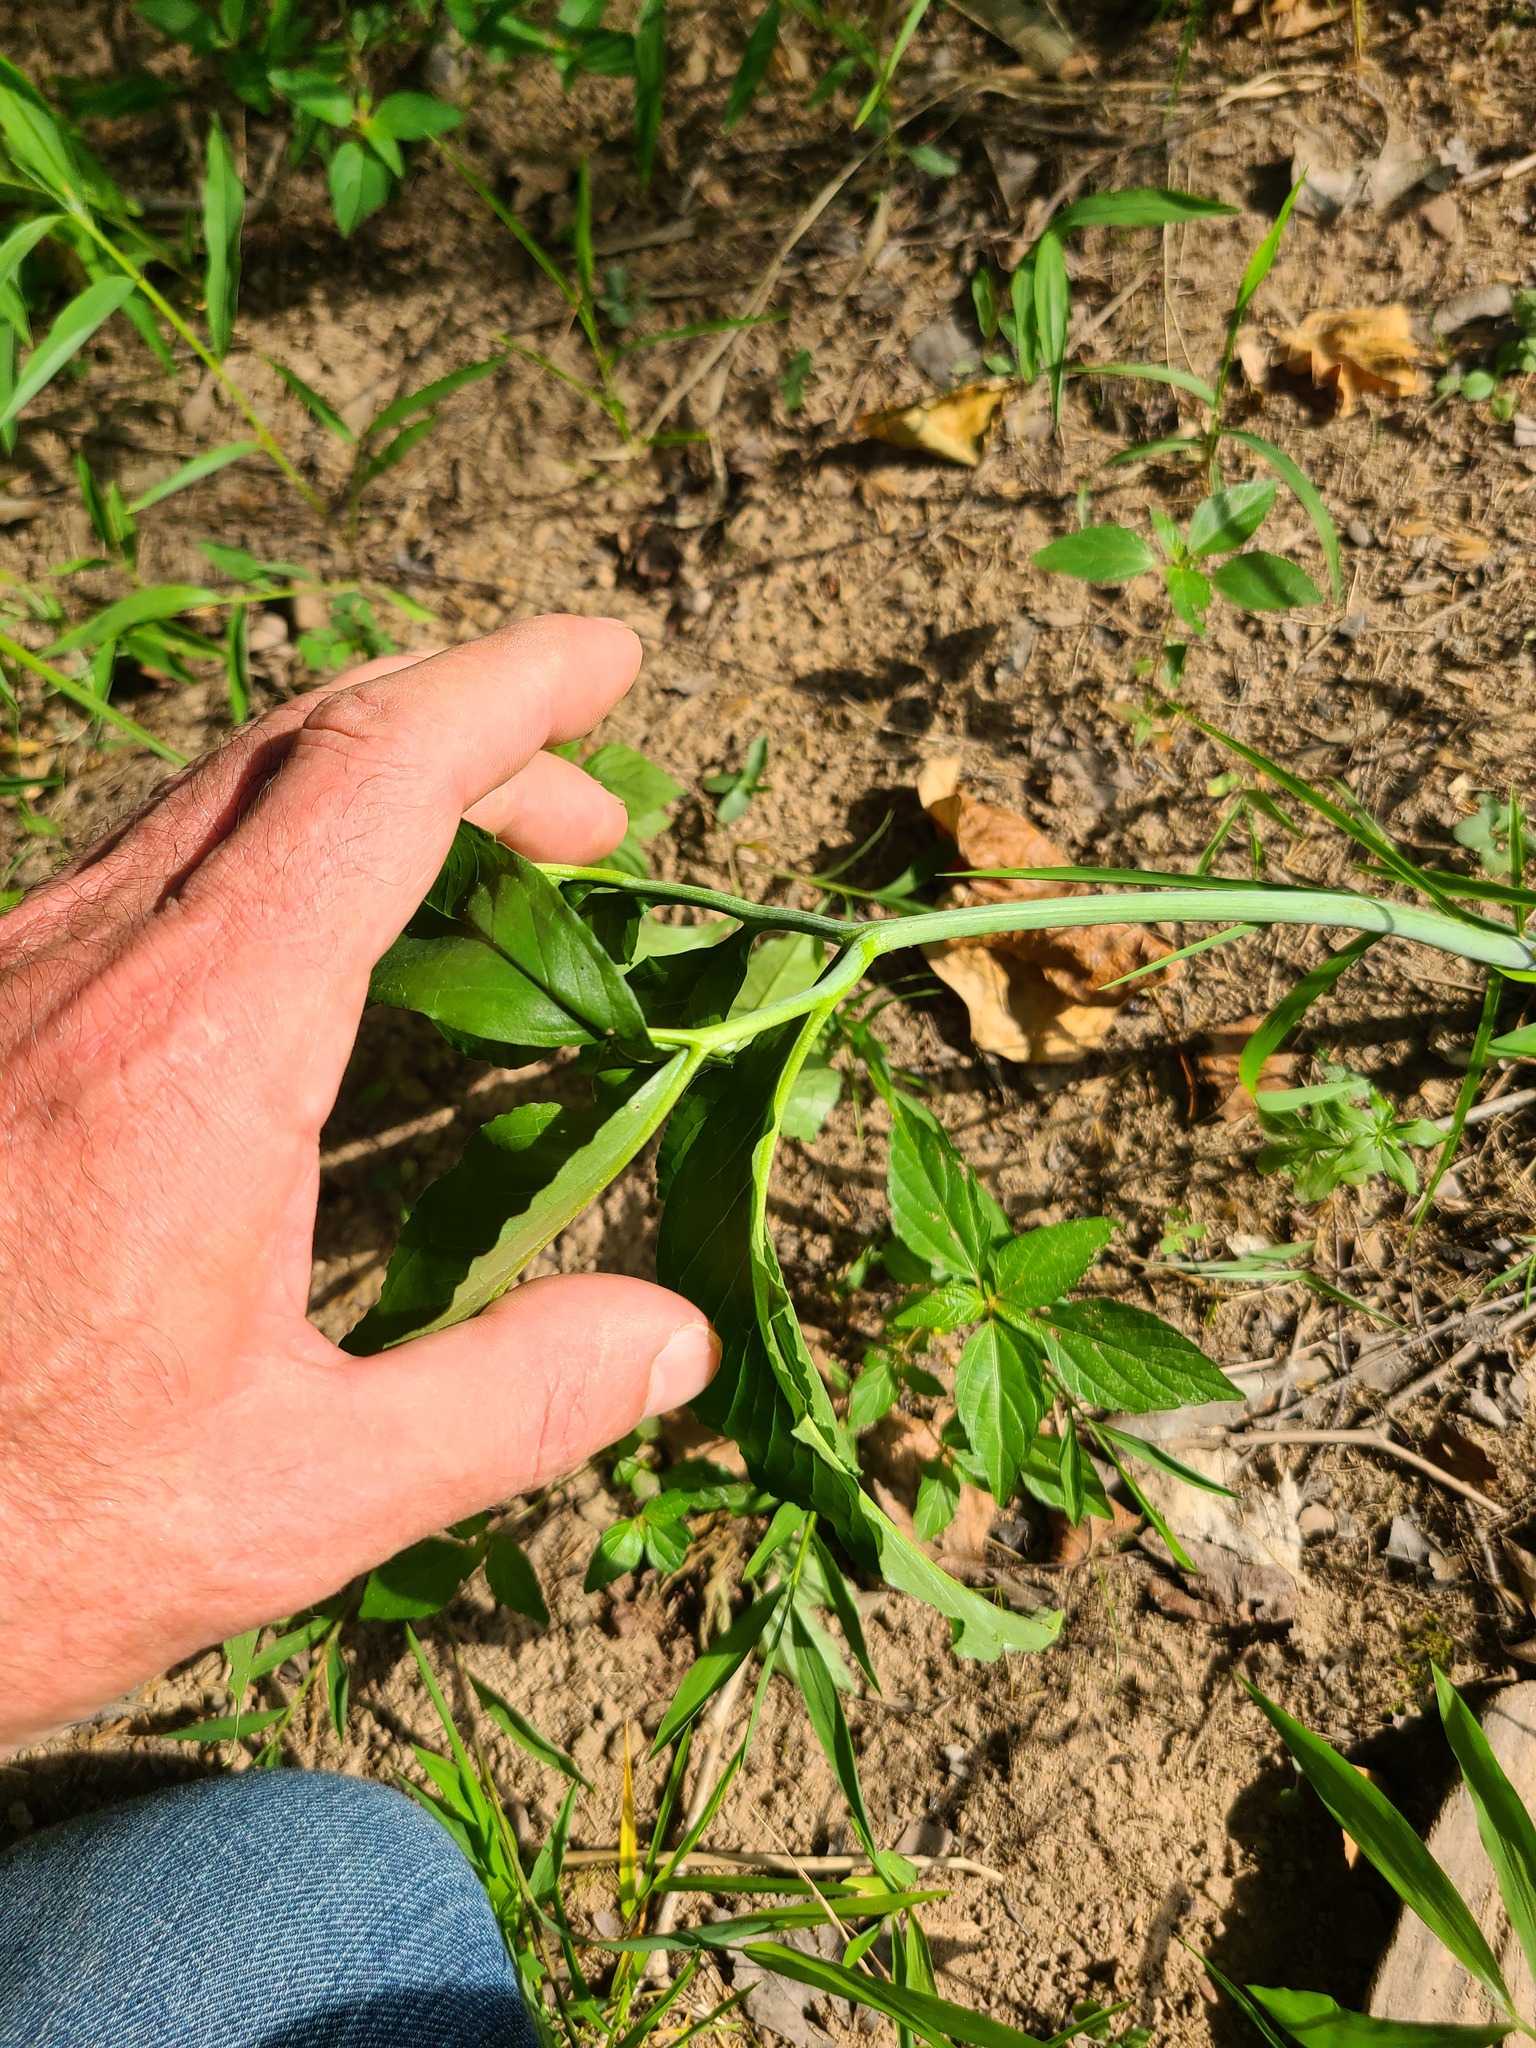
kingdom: Plantae
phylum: Tracheophyta
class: Liliopsida
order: Alismatales
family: Araceae
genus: Arisaema
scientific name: Arisaema dracontium
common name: Dragon-arum
